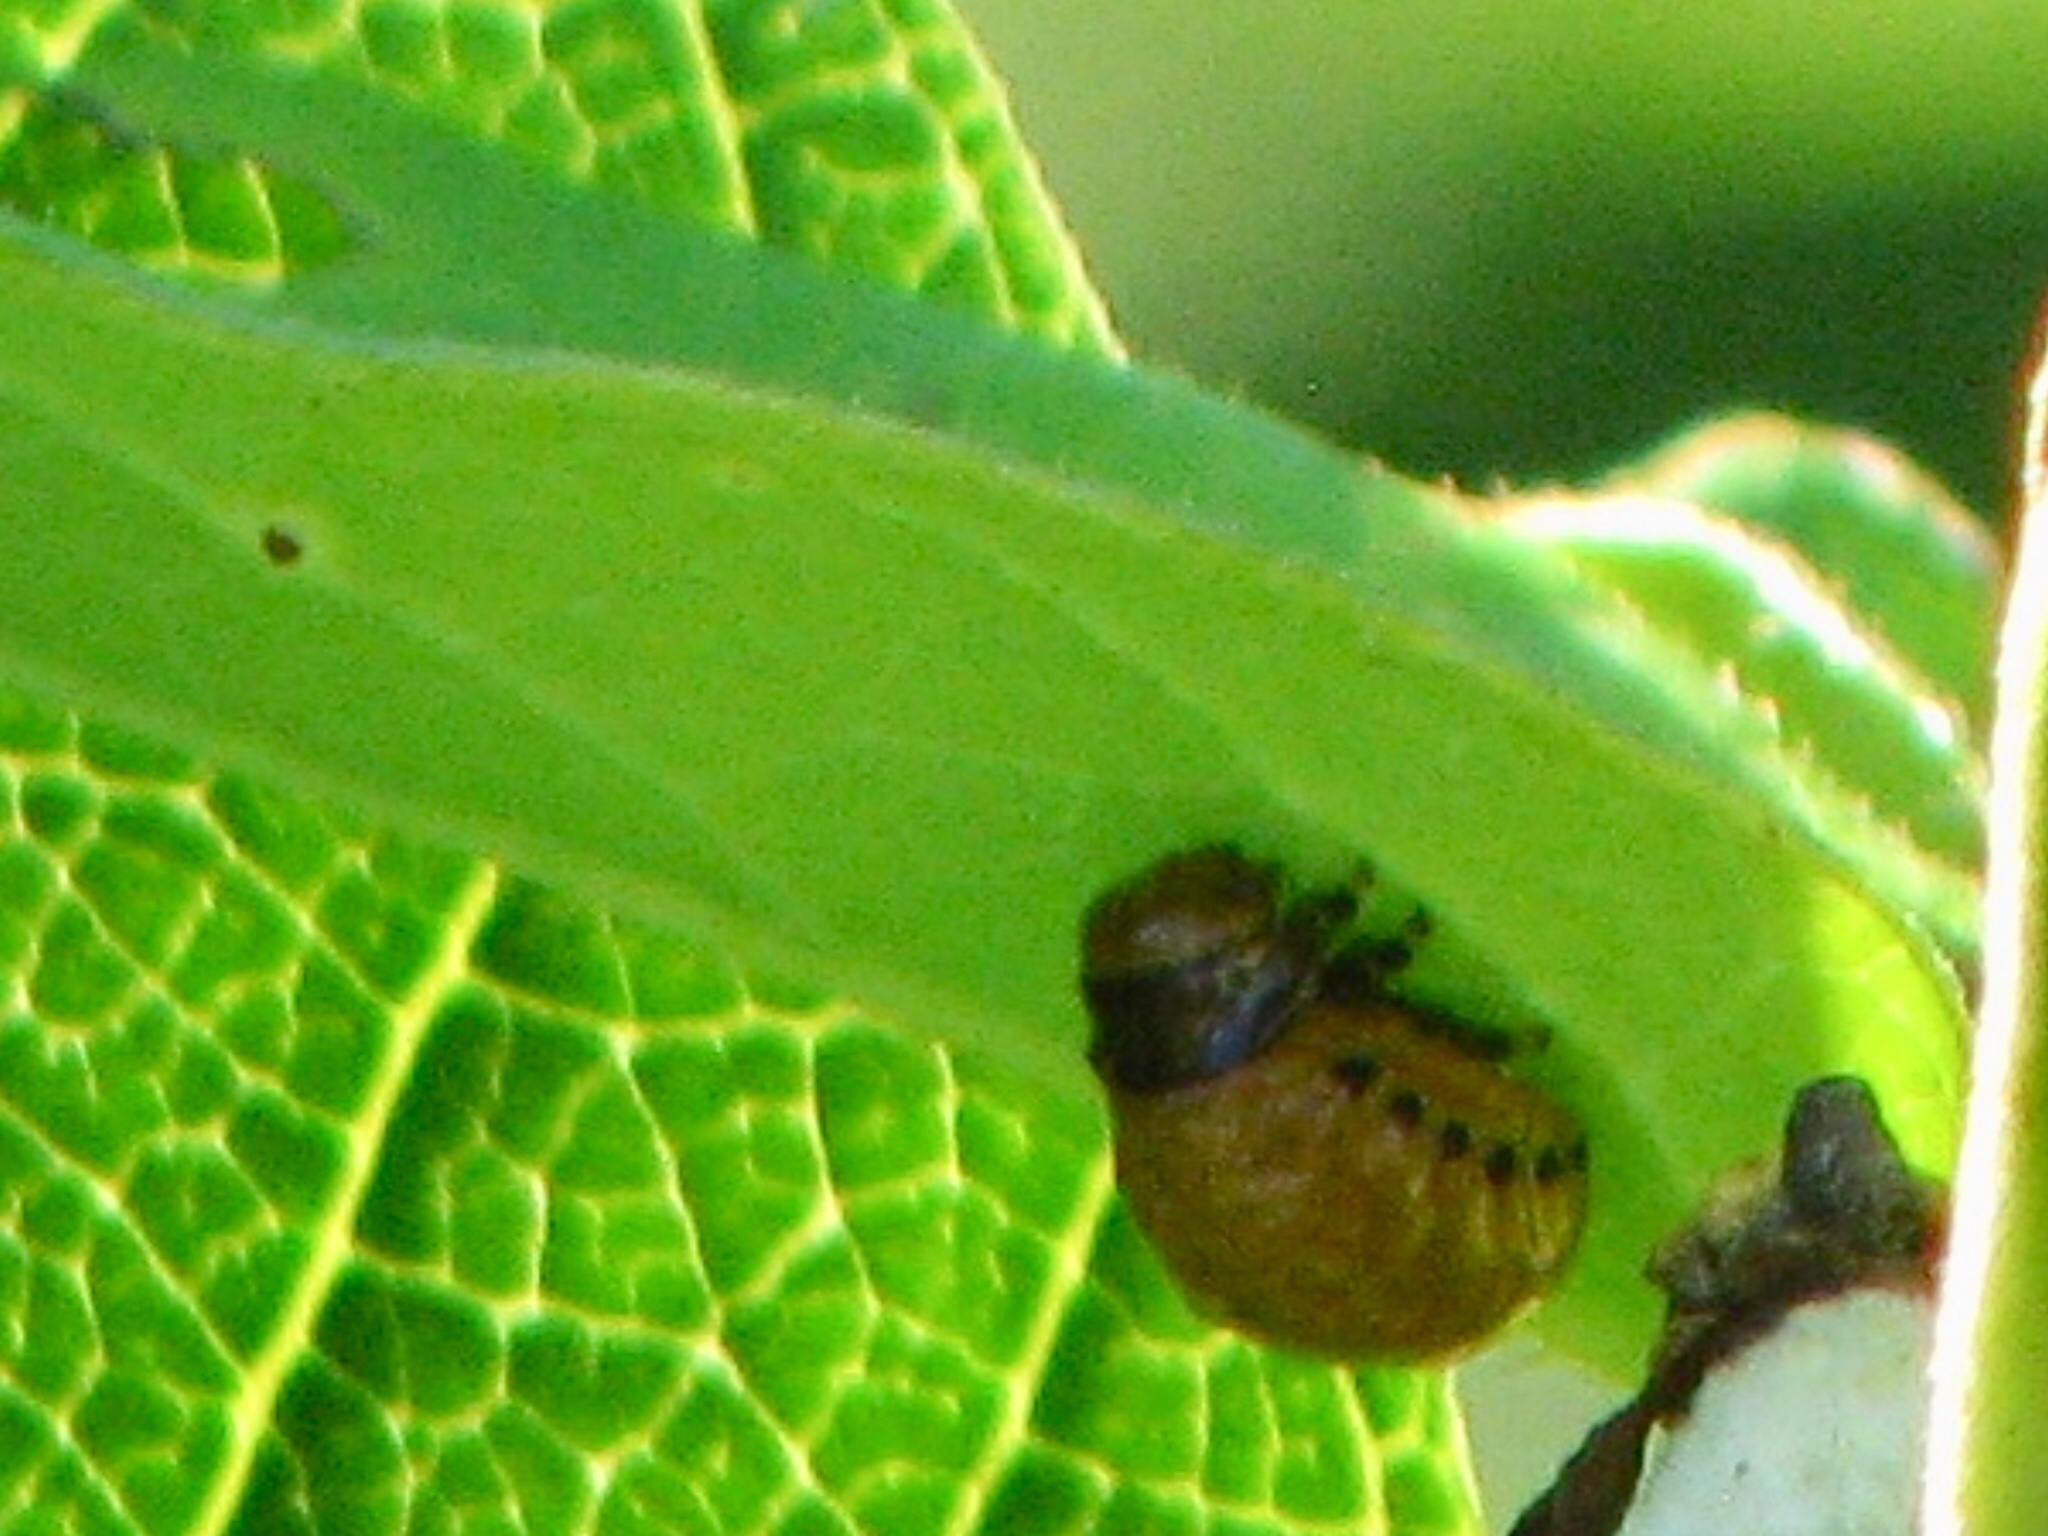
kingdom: Animalia
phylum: Arthropoda
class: Insecta
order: Coleoptera
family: Chrysomelidae
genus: Labidomera
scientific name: Labidomera clivicollis
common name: Swamp milkweed leaf beetle
